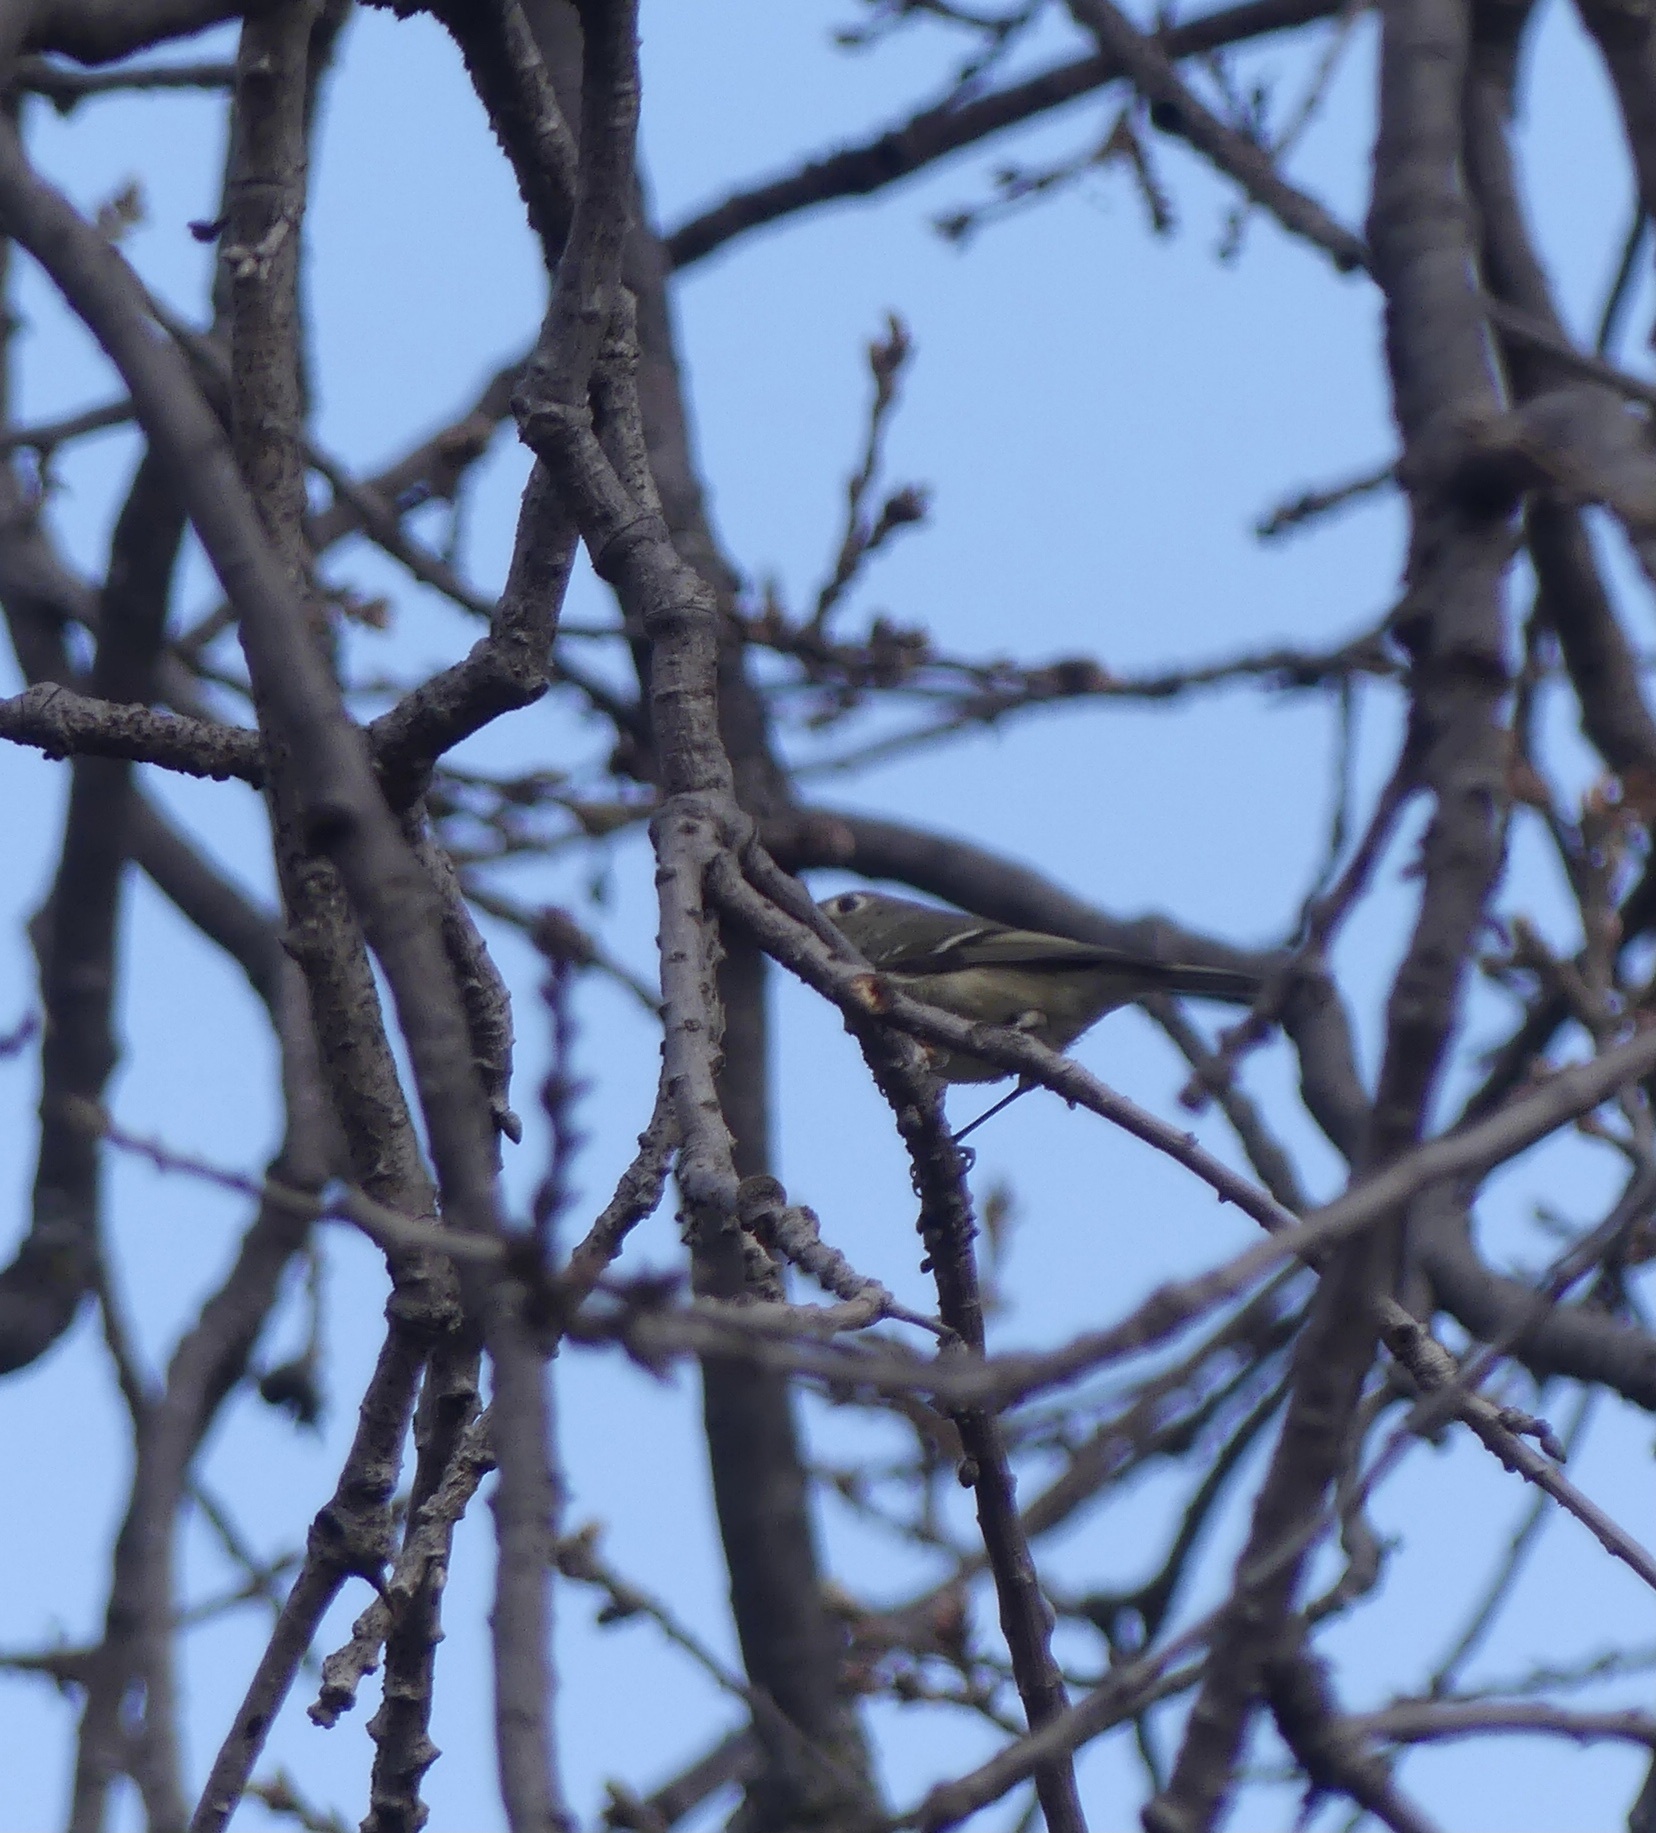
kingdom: Animalia
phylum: Chordata
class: Aves
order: Passeriformes
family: Regulidae
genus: Regulus
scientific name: Regulus calendula
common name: Ruby-crowned kinglet
